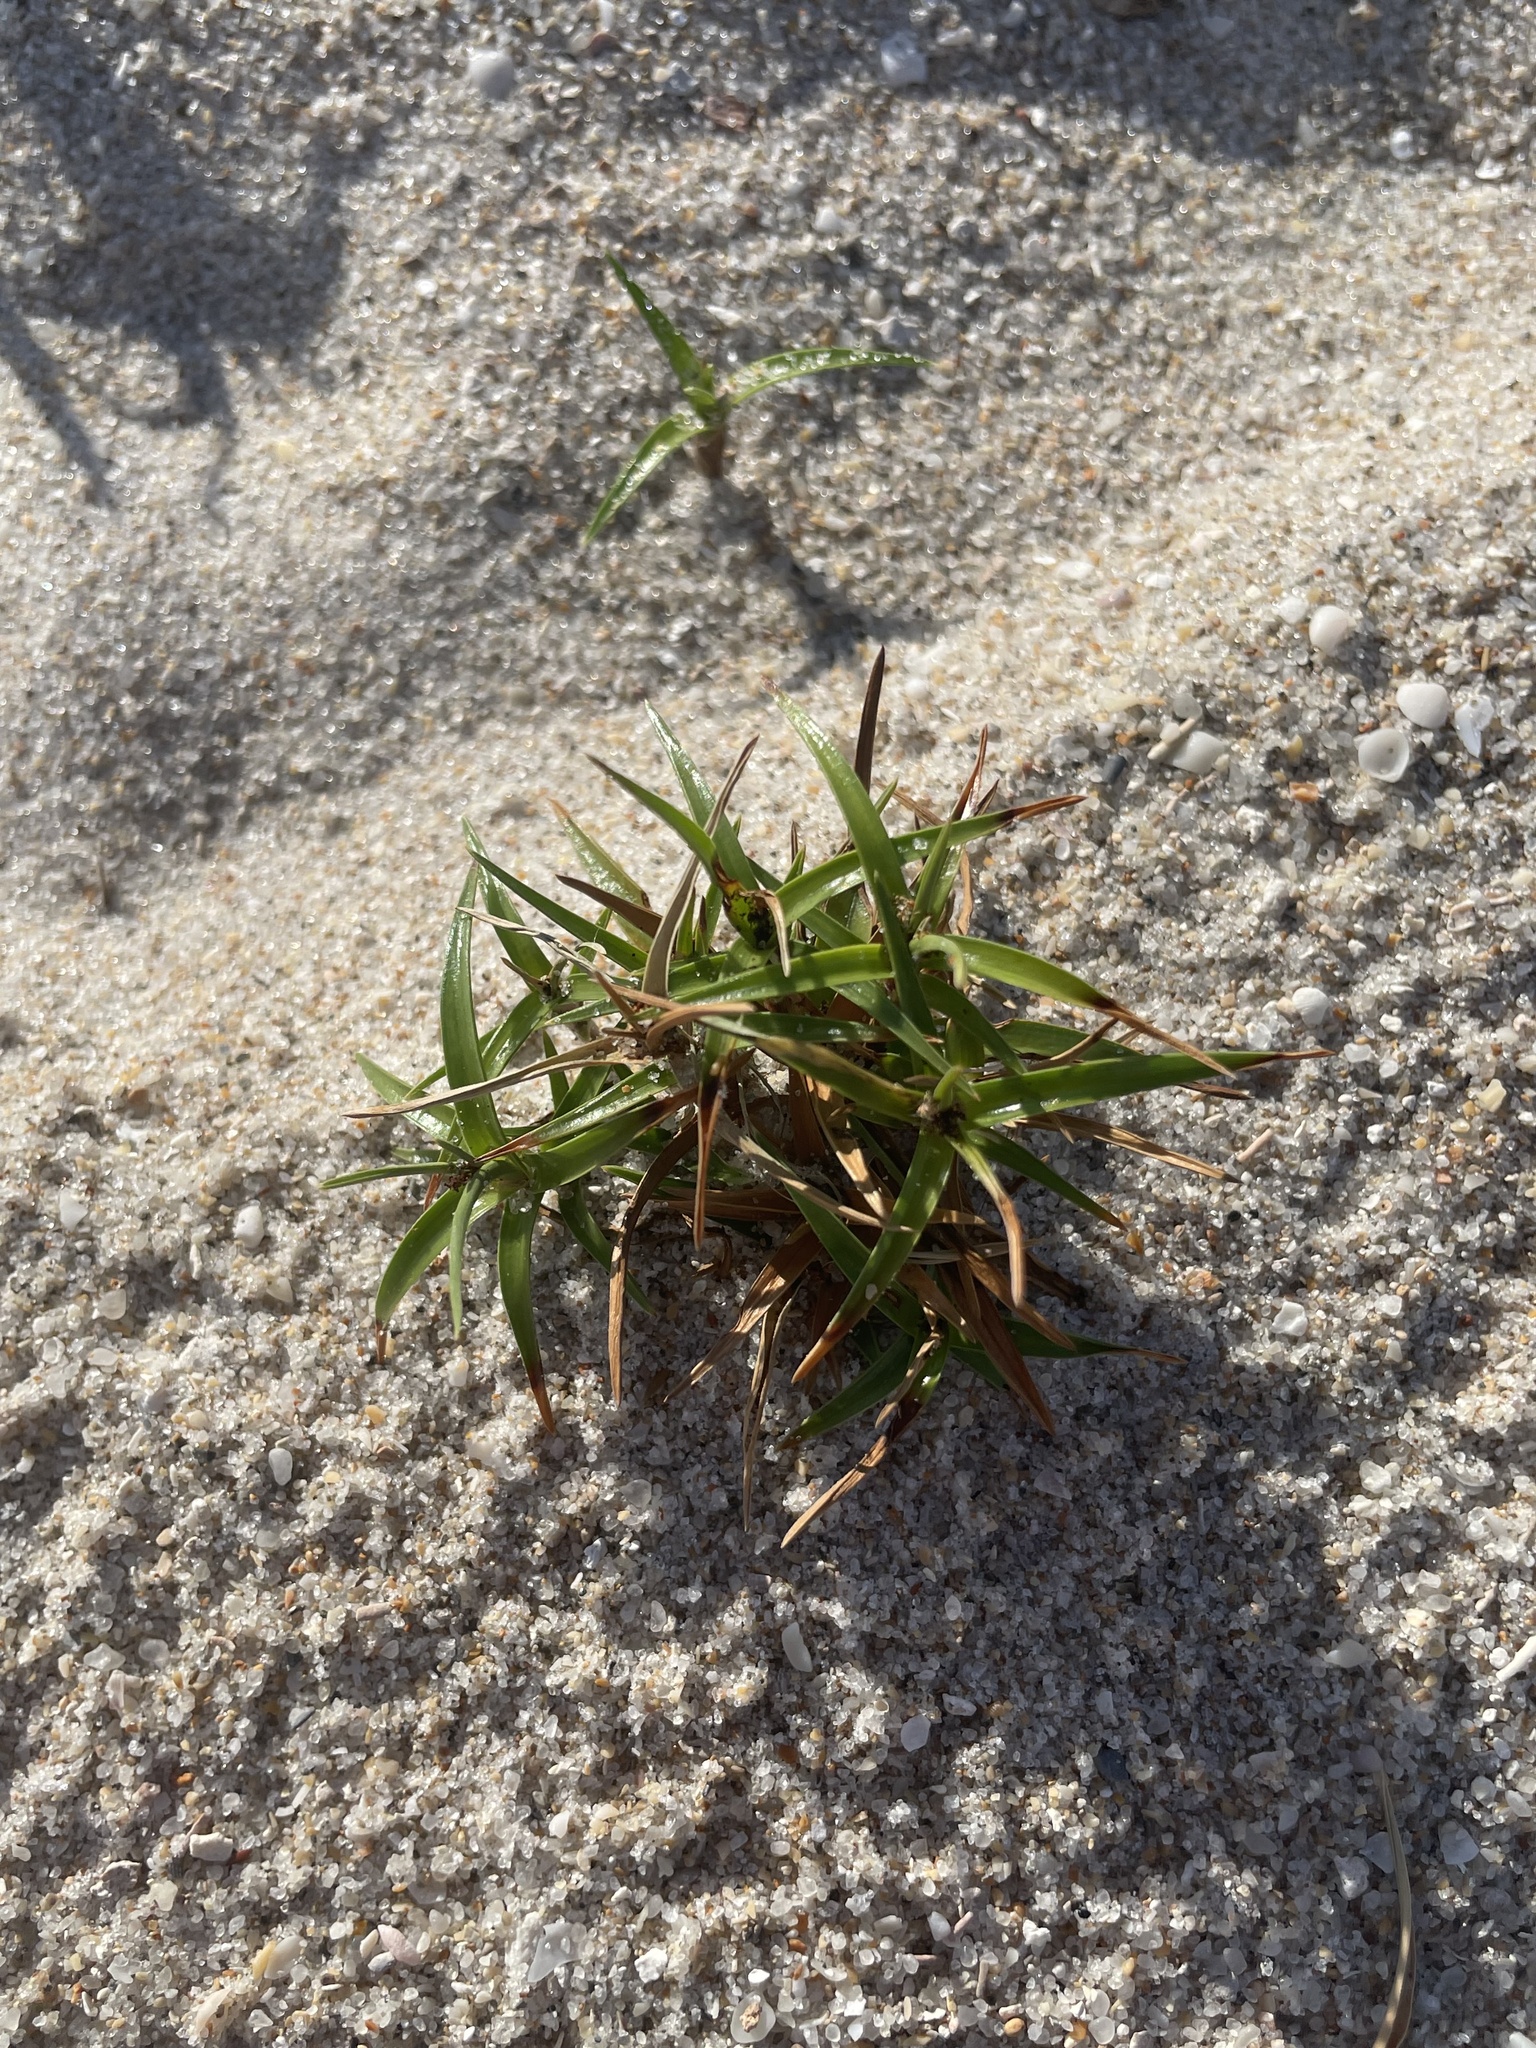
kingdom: Plantae
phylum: Tracheophyta
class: Liliopsida
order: Poales
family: Cyperaceae
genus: Cyperus
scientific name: Cyperus pedunculatus
